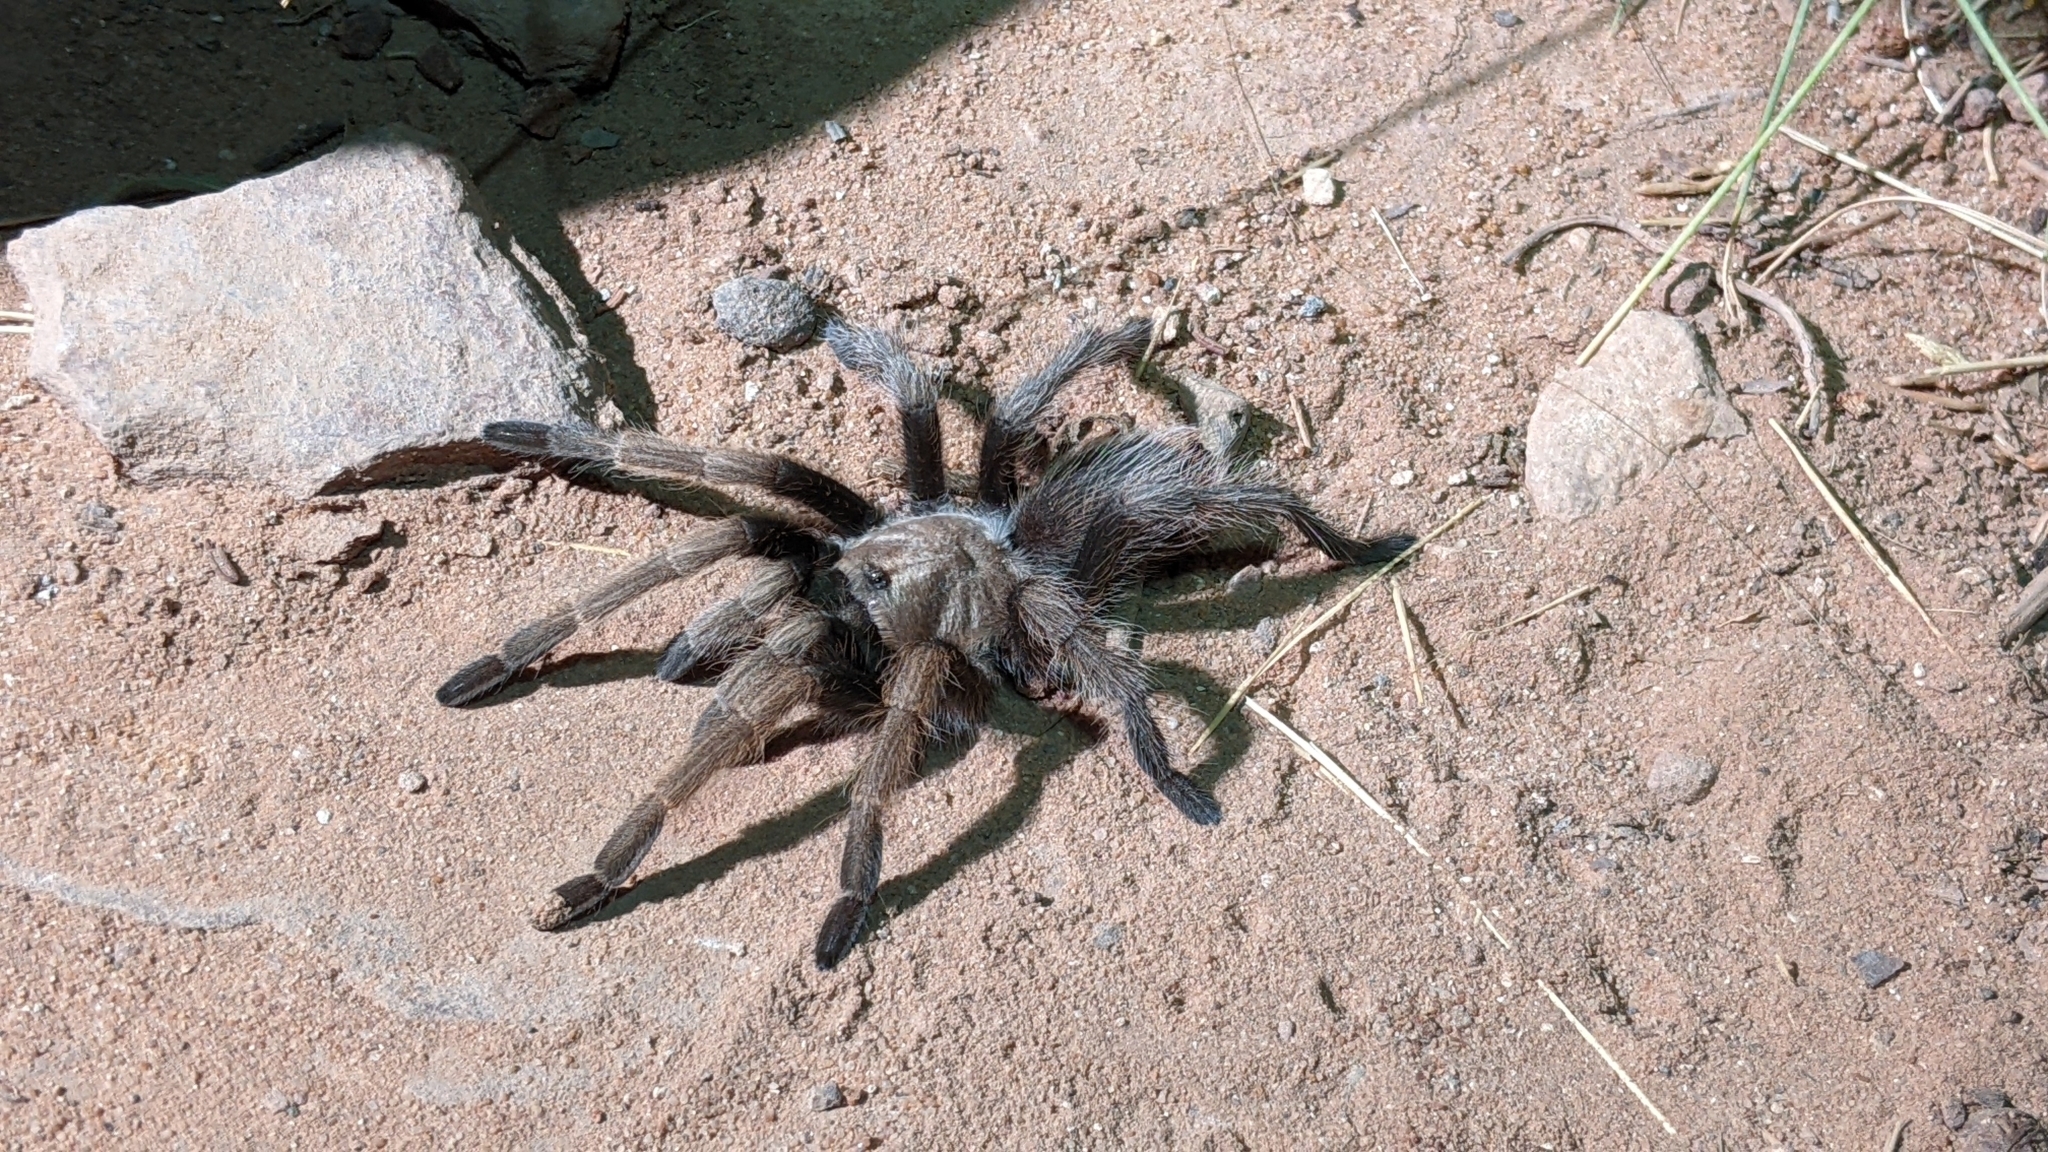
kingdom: Animalia
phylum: Arthropoda
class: Arachnida
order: Araneae
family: Theraphosidae
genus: Aphonopelma
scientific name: Aphonopelma iodius
